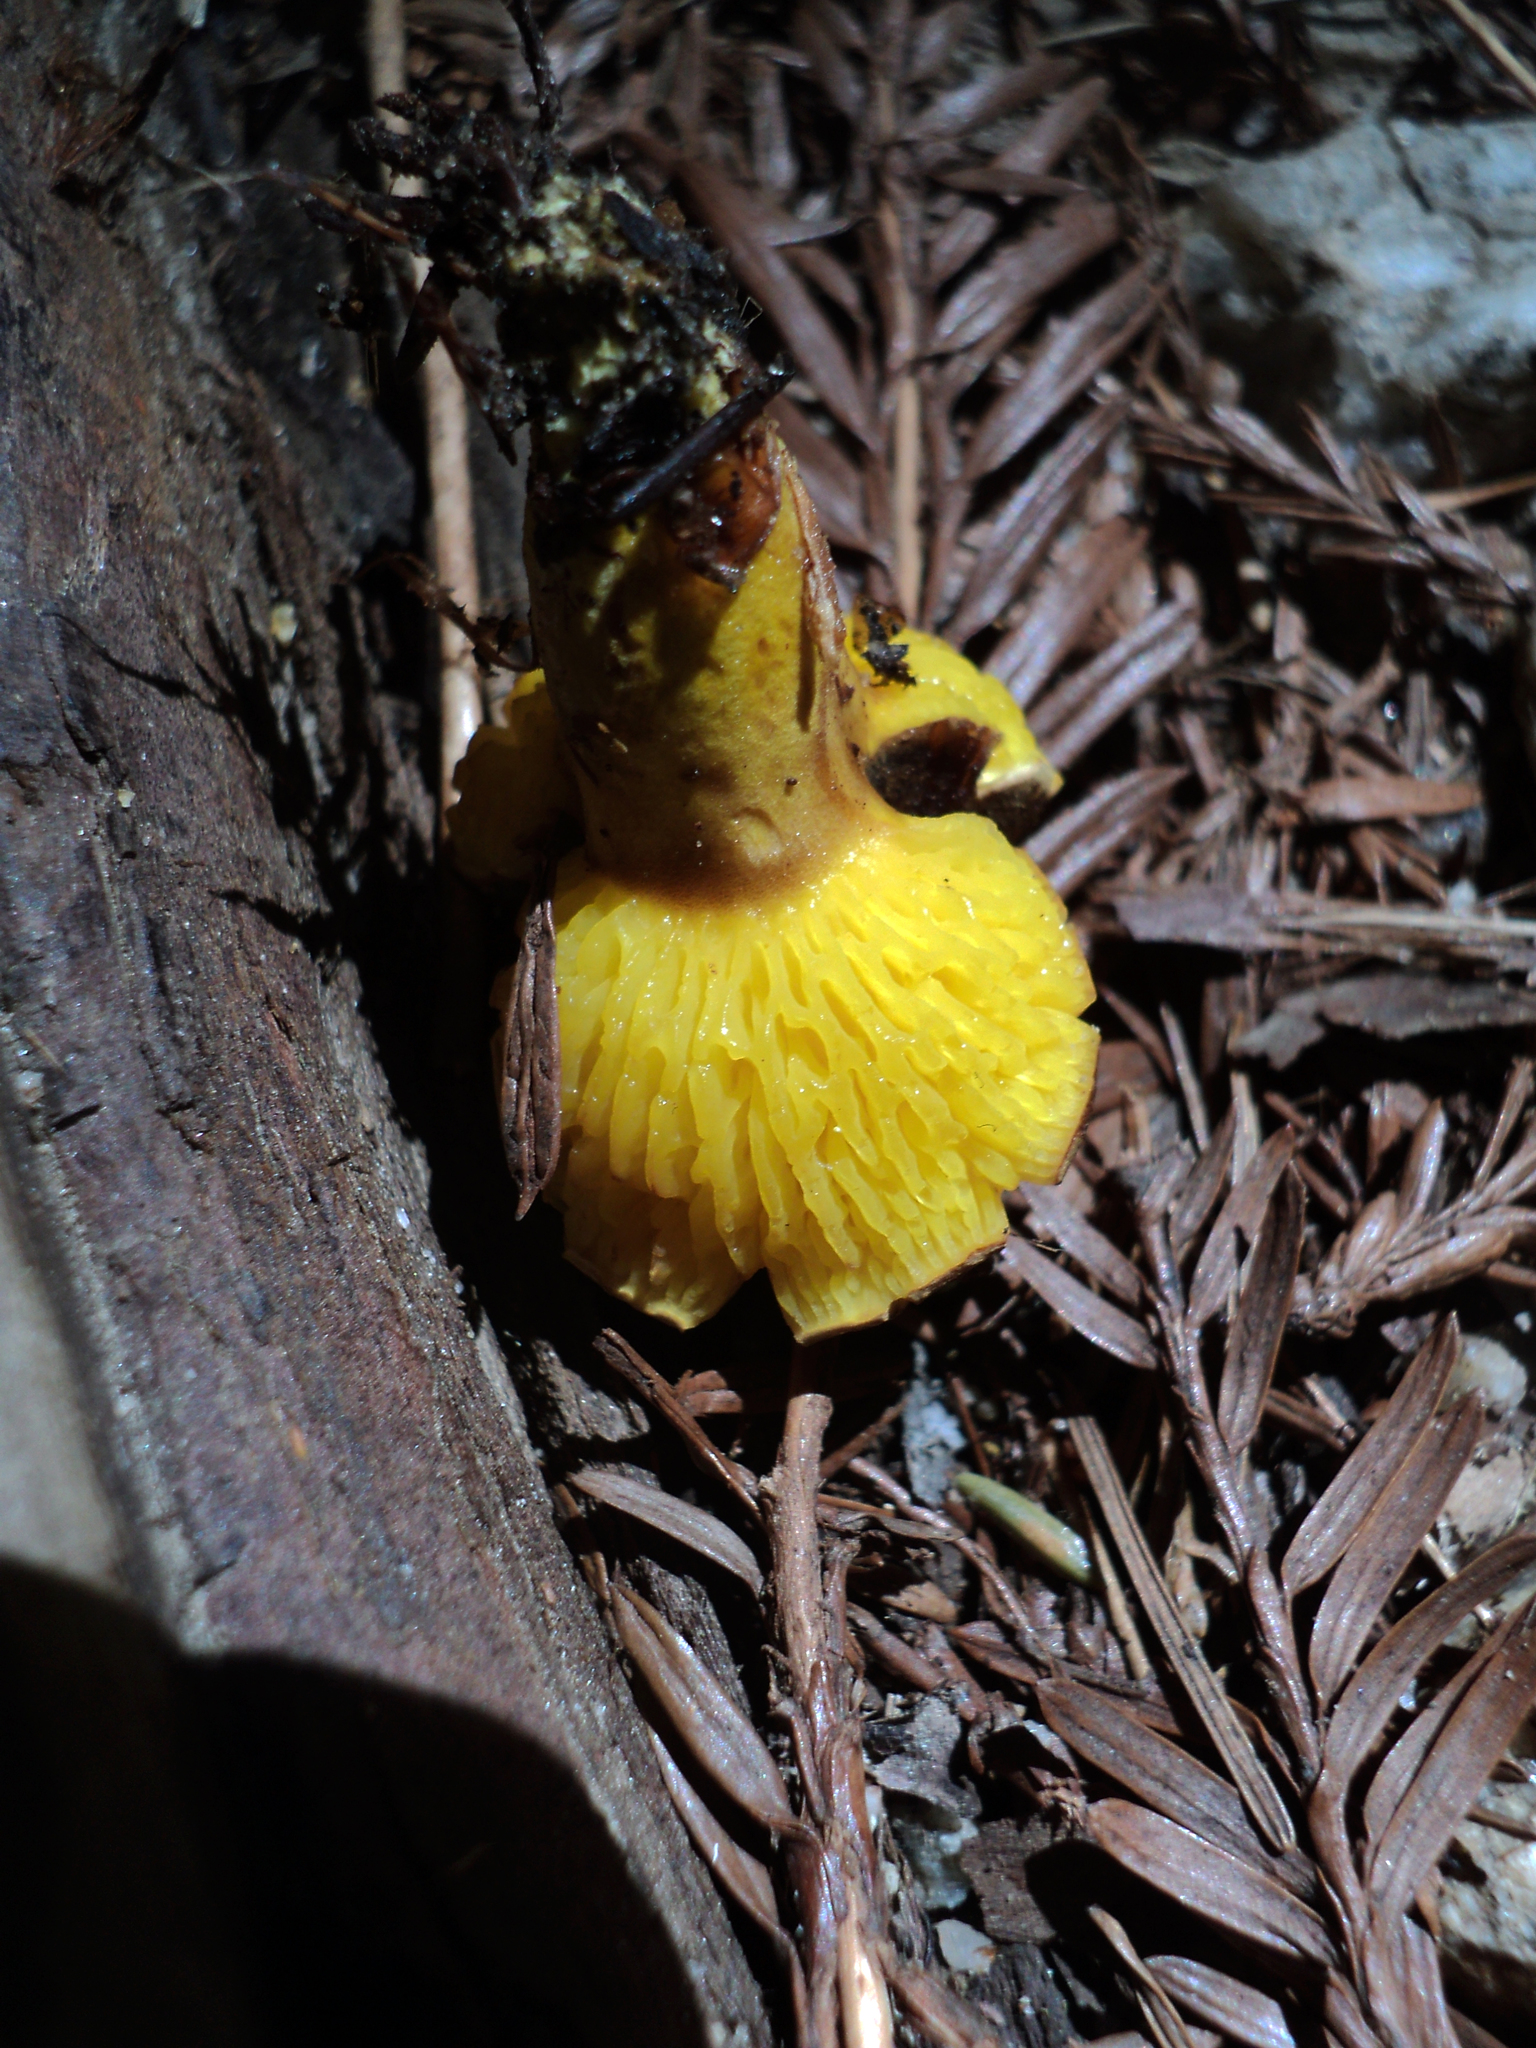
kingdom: Fungi
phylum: Basidiomycota
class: Agaricomycetes
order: Boletales
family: Boletaceae
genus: Phylloporus
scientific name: Phylloporus arenicola
